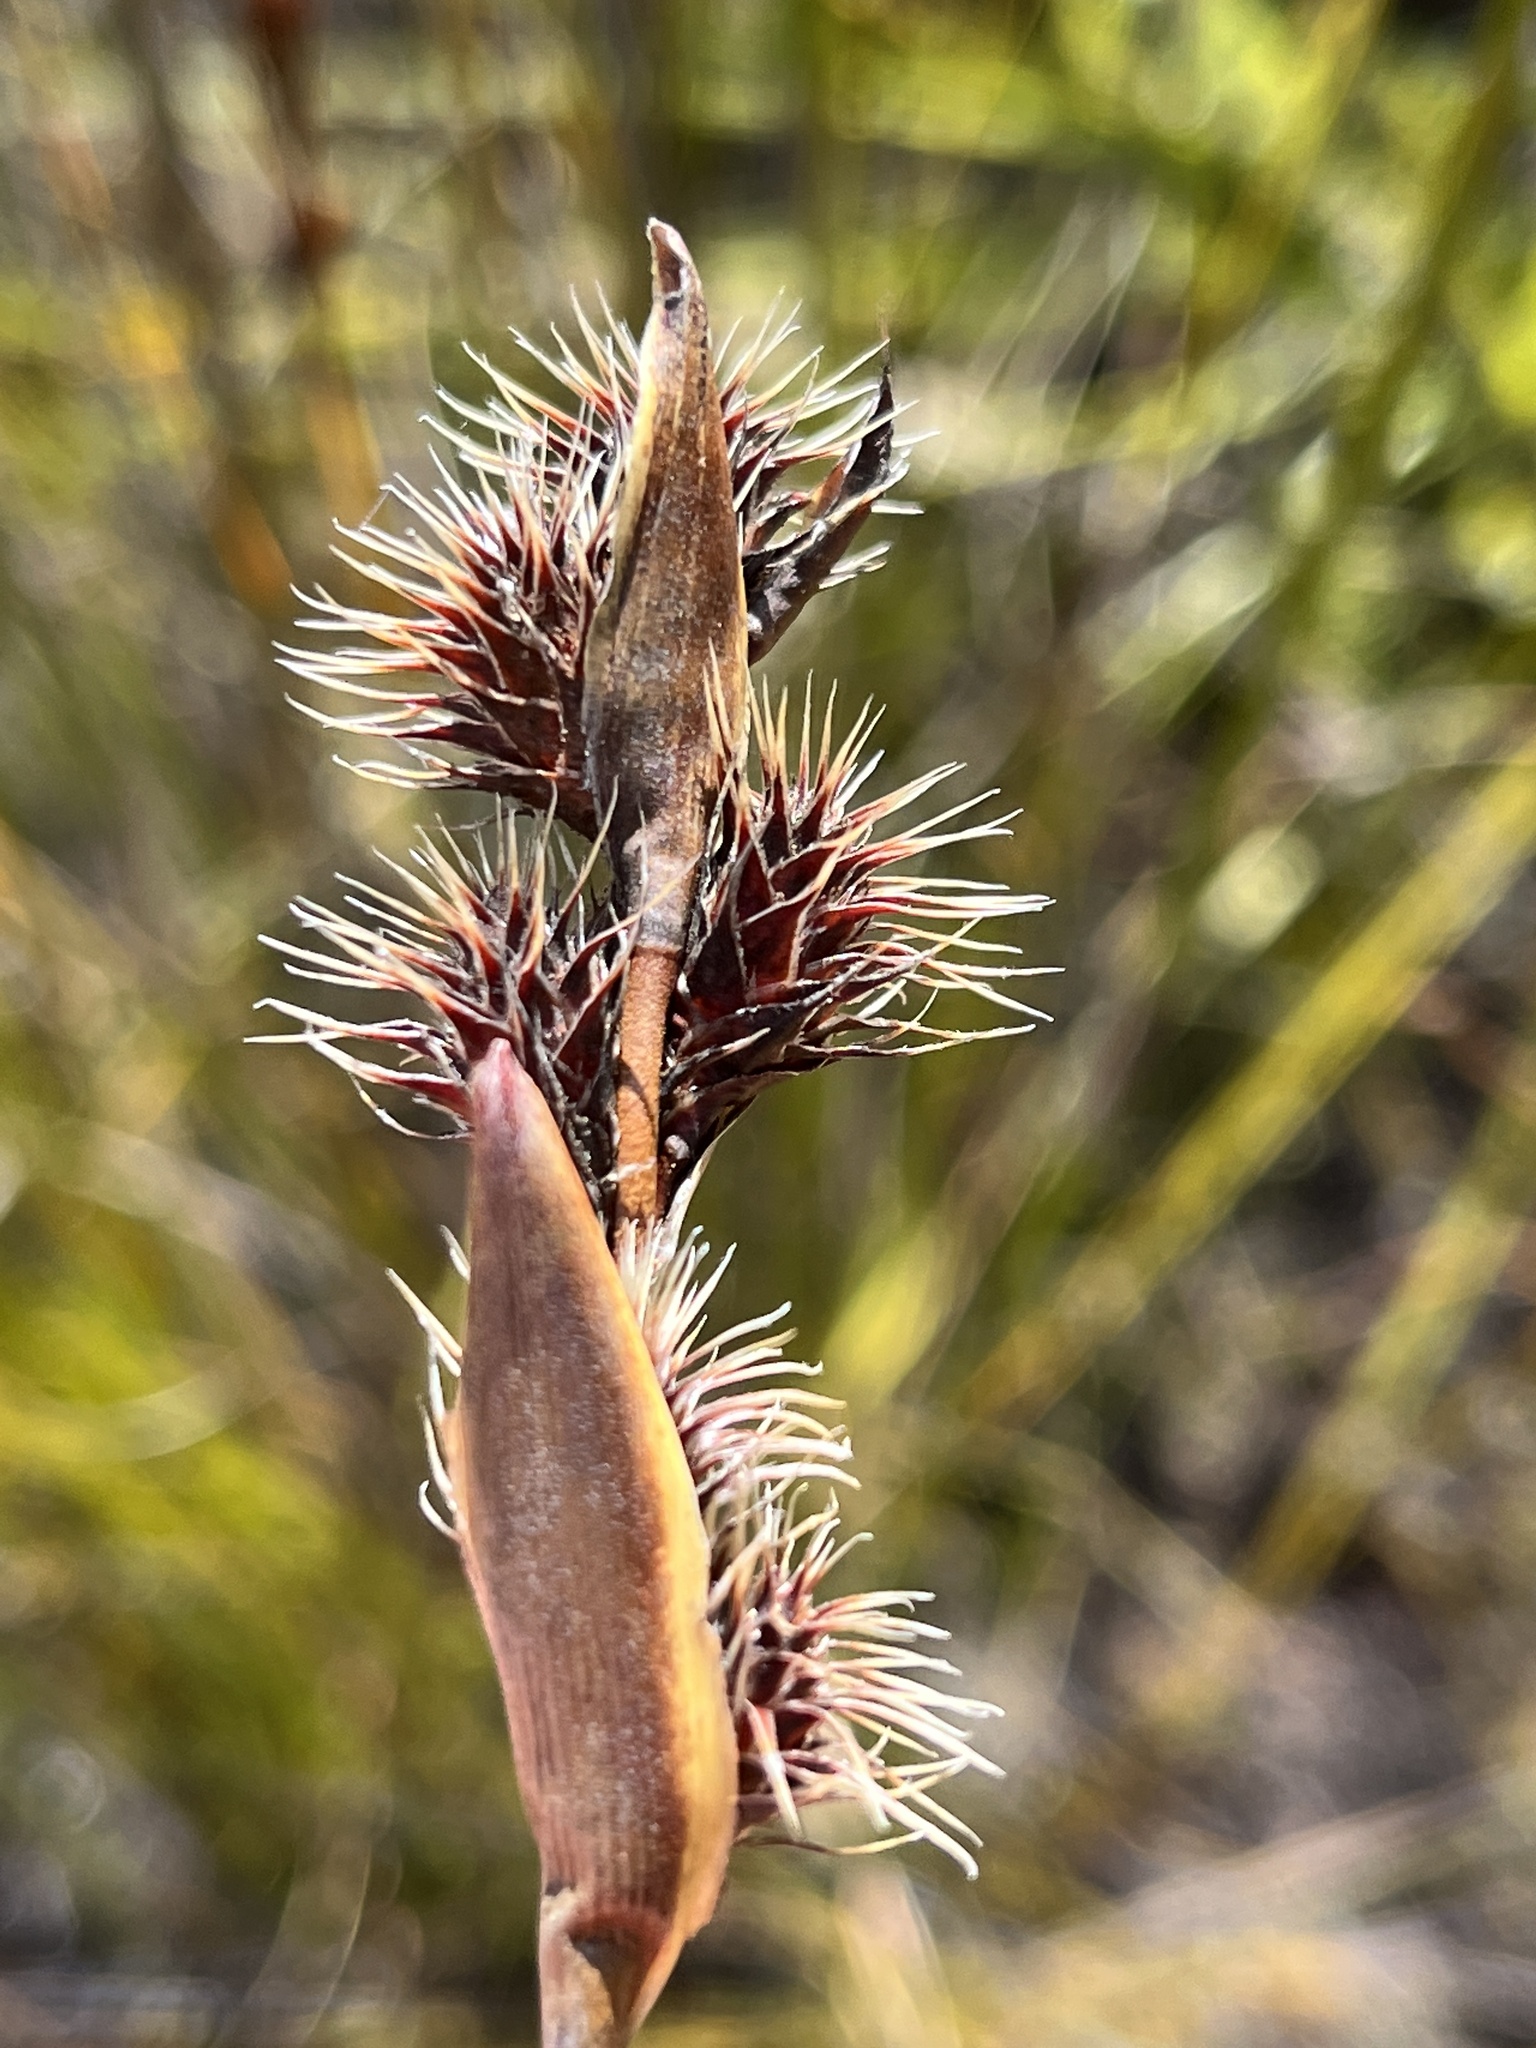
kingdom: Plantae
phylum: Tracheophyta
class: Liliopsida
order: Poales
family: Restionaceae
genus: Hypodiscus
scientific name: Hypodiscus aristatus
